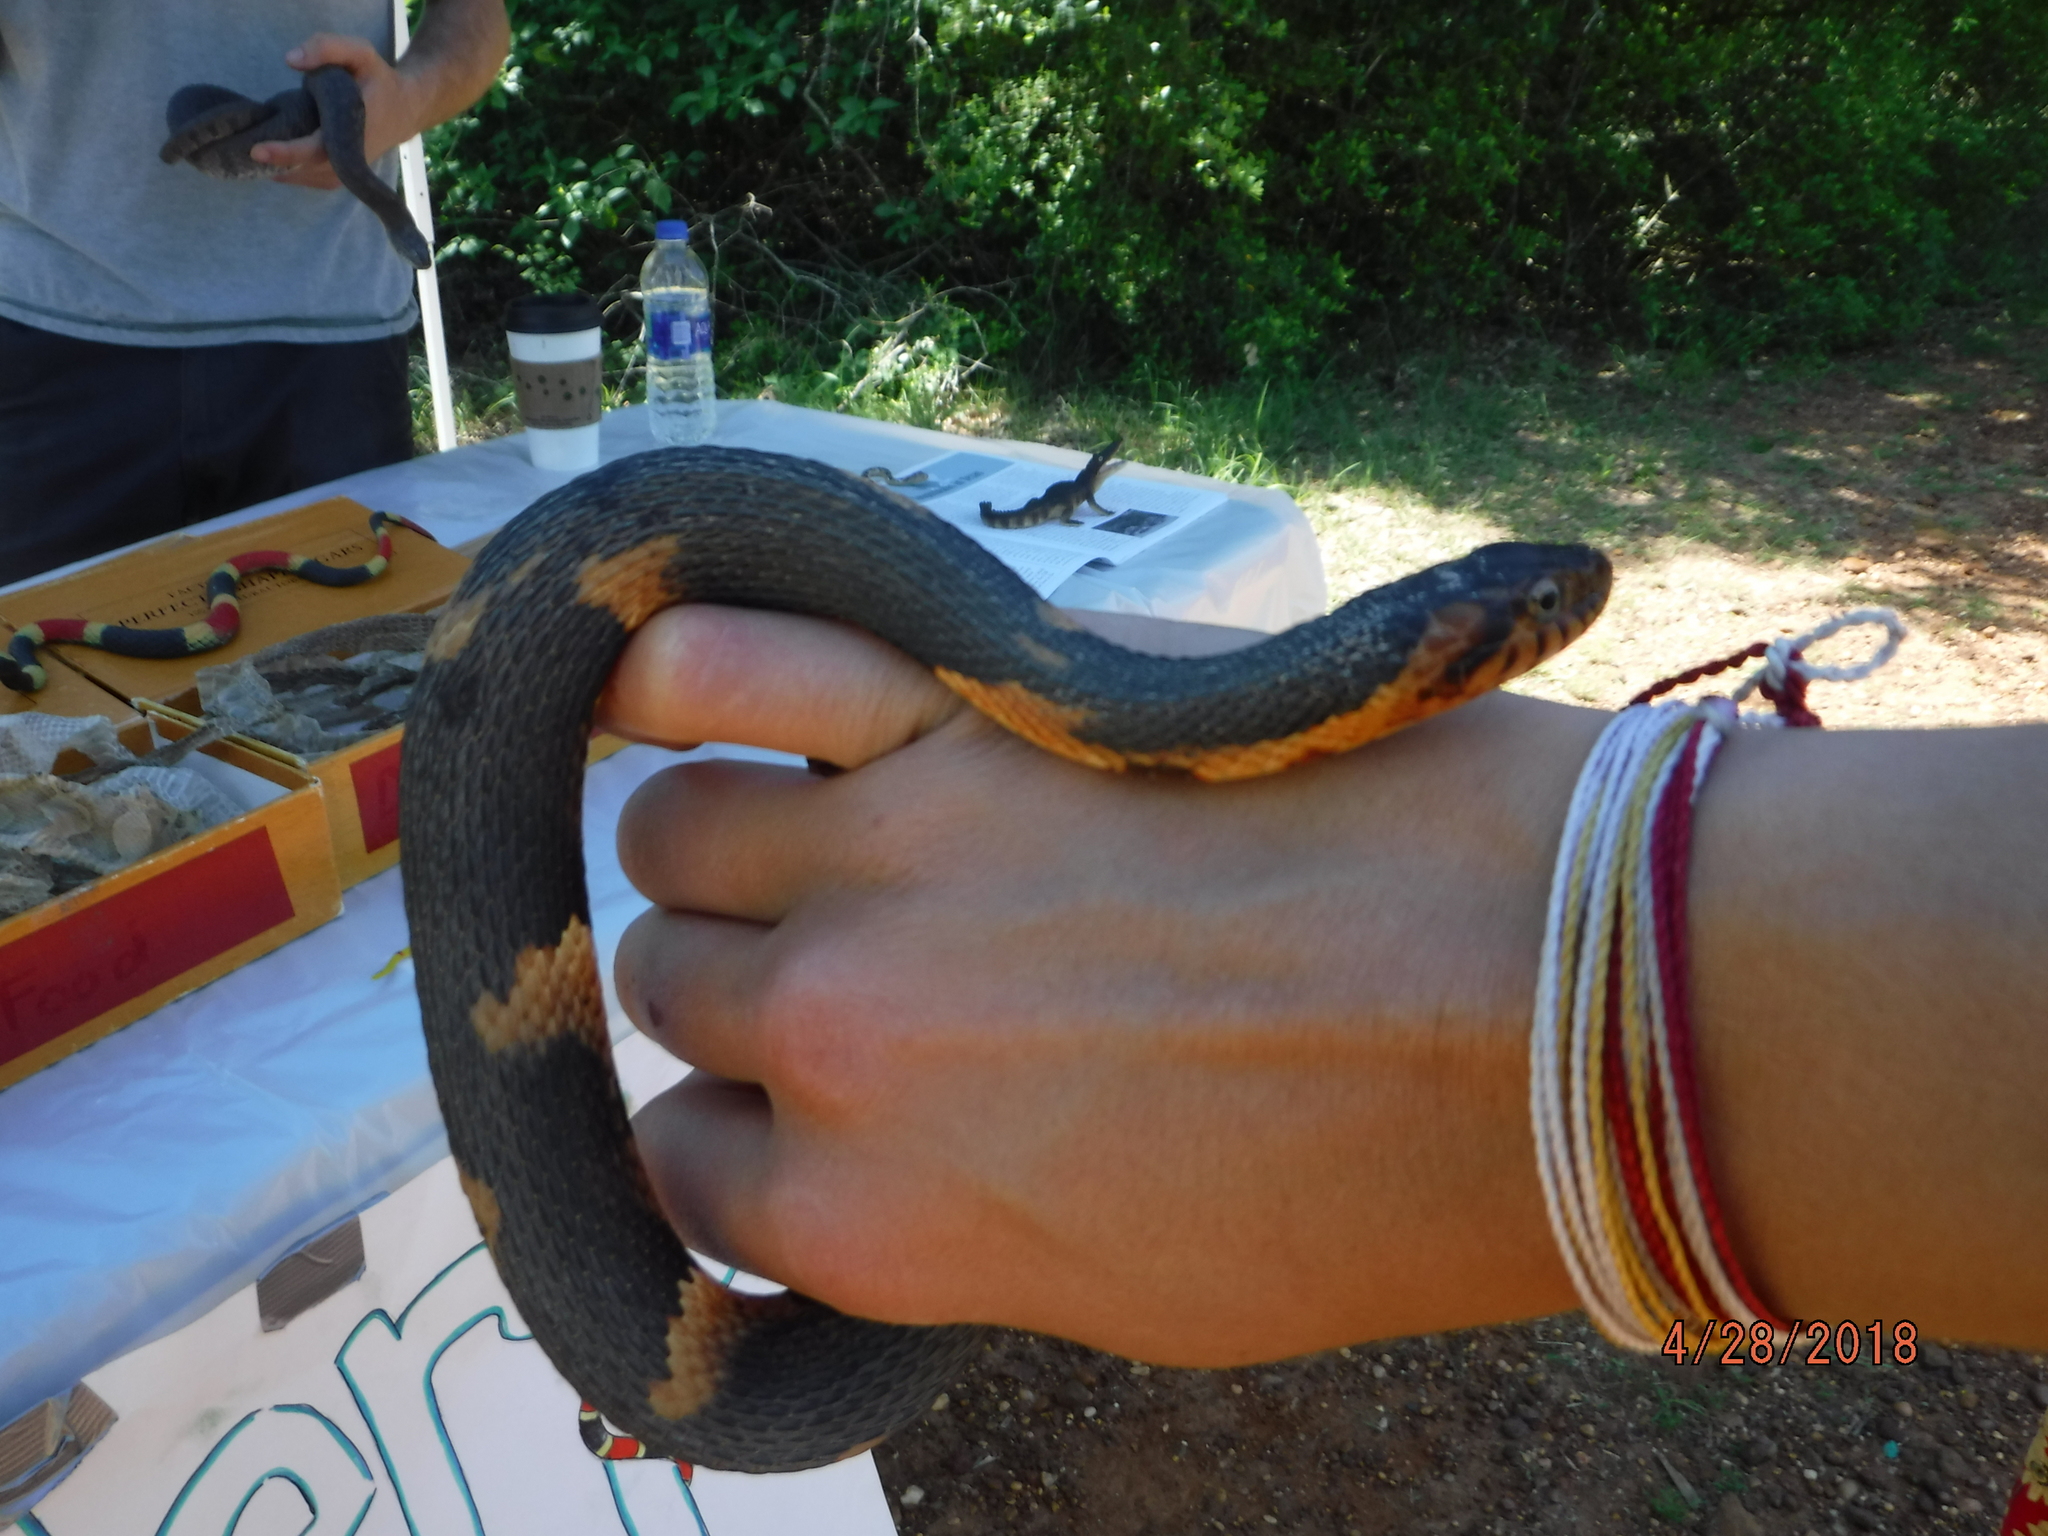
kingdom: Animalia
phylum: Chordata
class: Squamata
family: Colubridae
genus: Nerodia
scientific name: Nerodia fasciata
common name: Southern water snake
